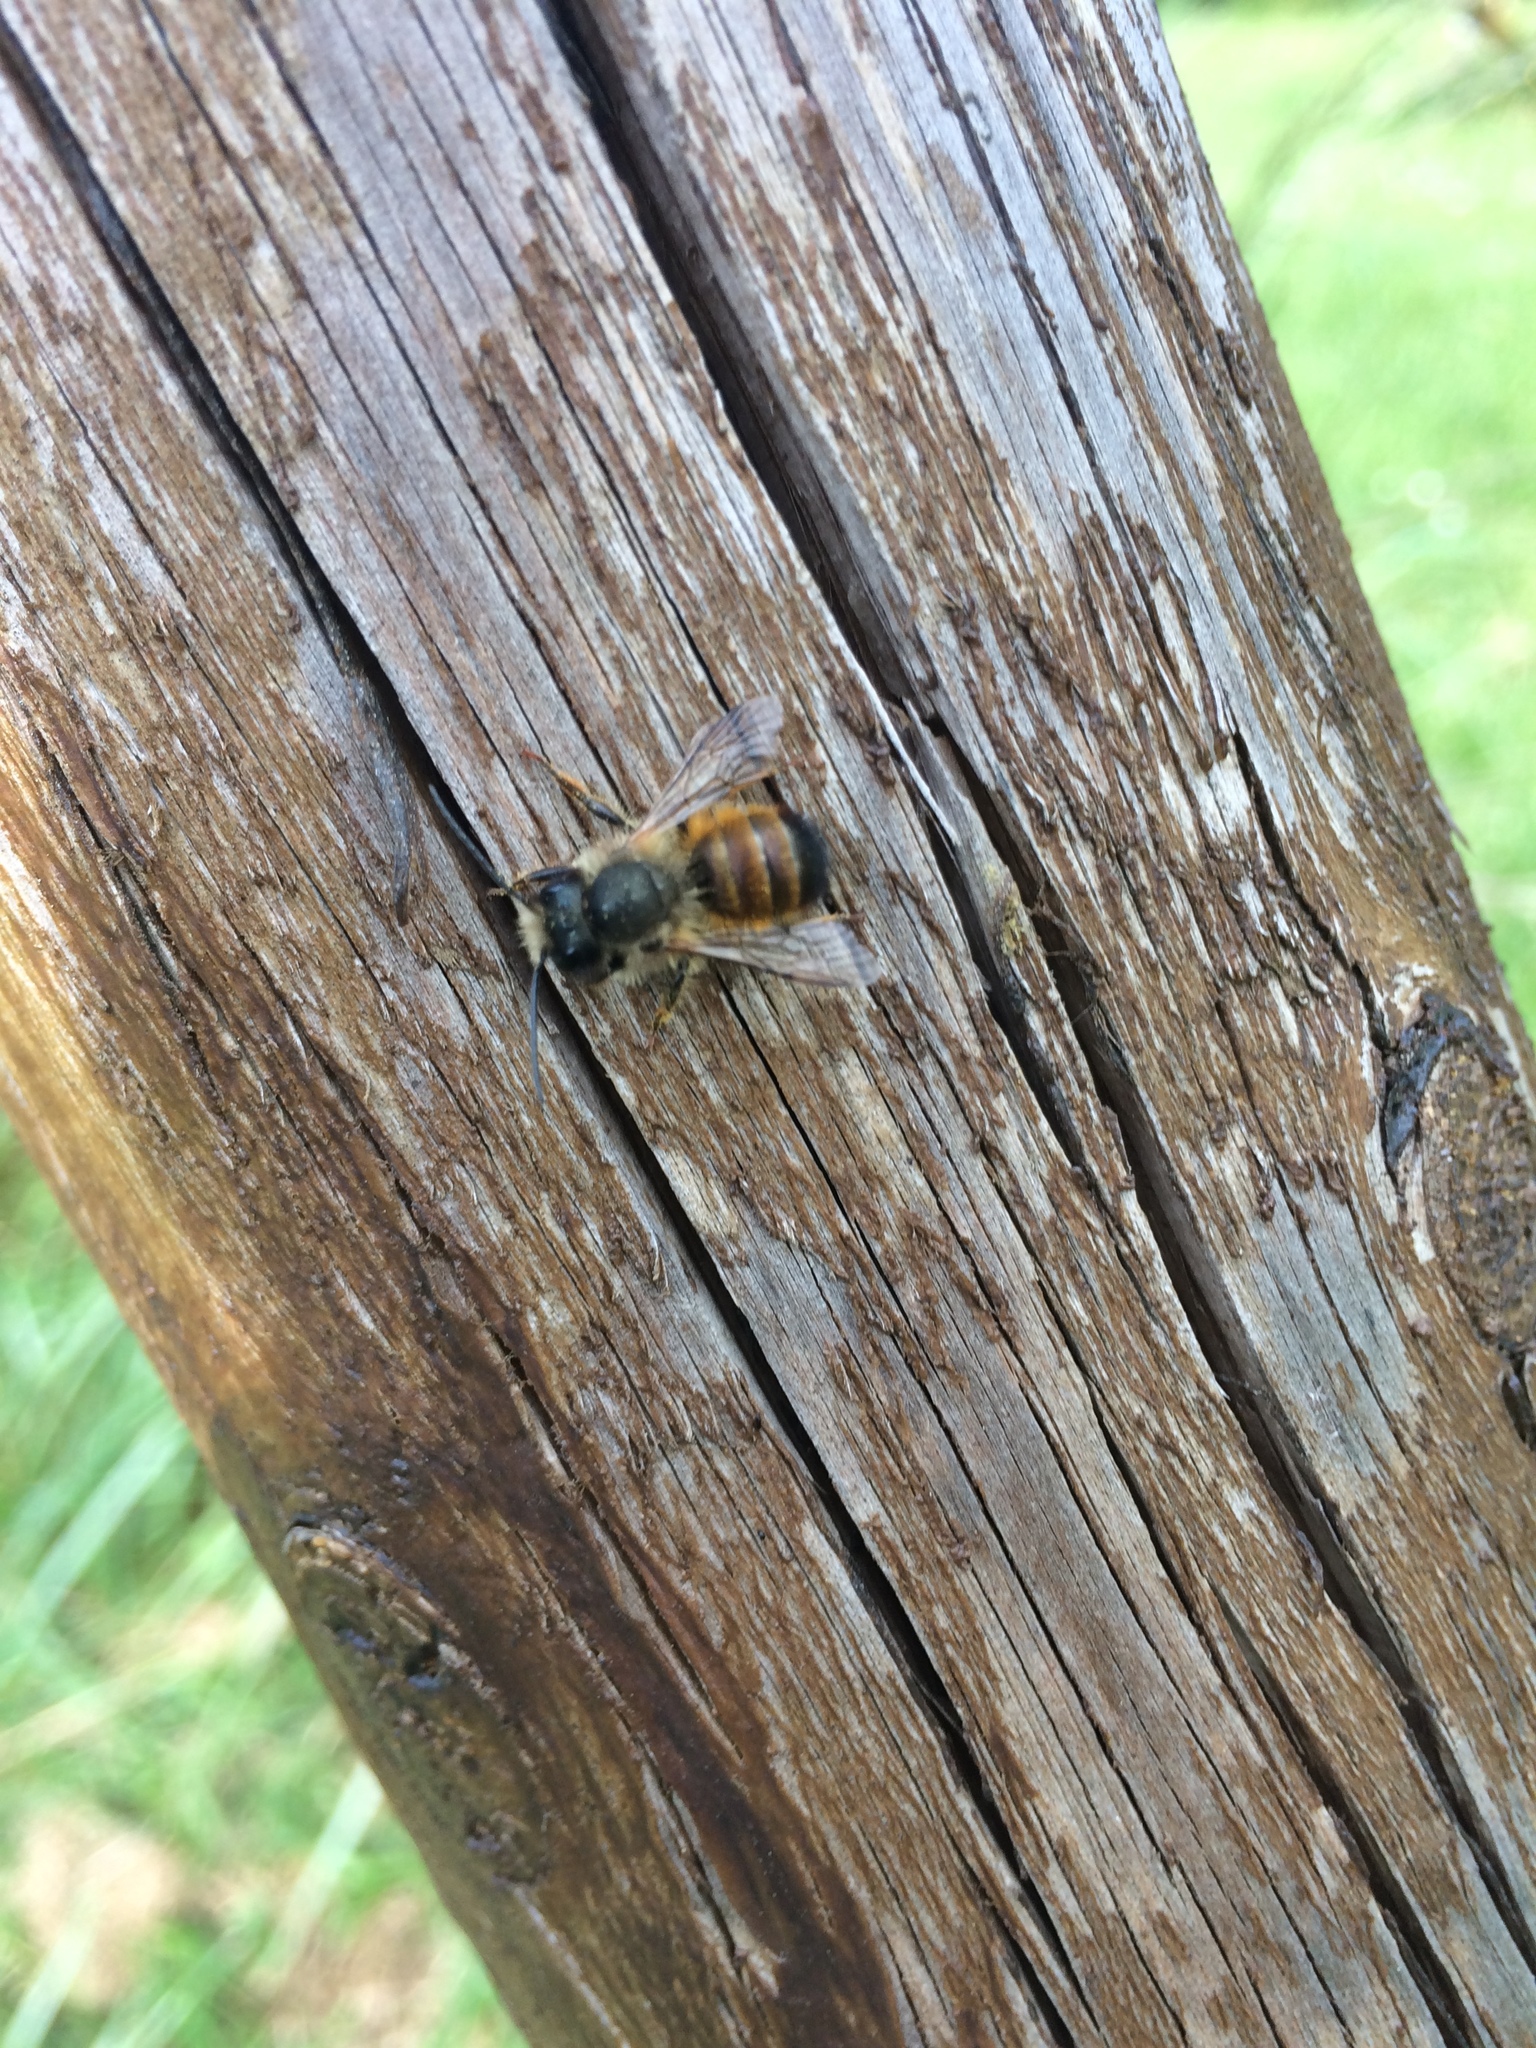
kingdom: Animalia
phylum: Arthropoda
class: Insecta
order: Hymenoptera
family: Megachilidae
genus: Osmia
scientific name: Osmia bicornis
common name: Red mason bee
